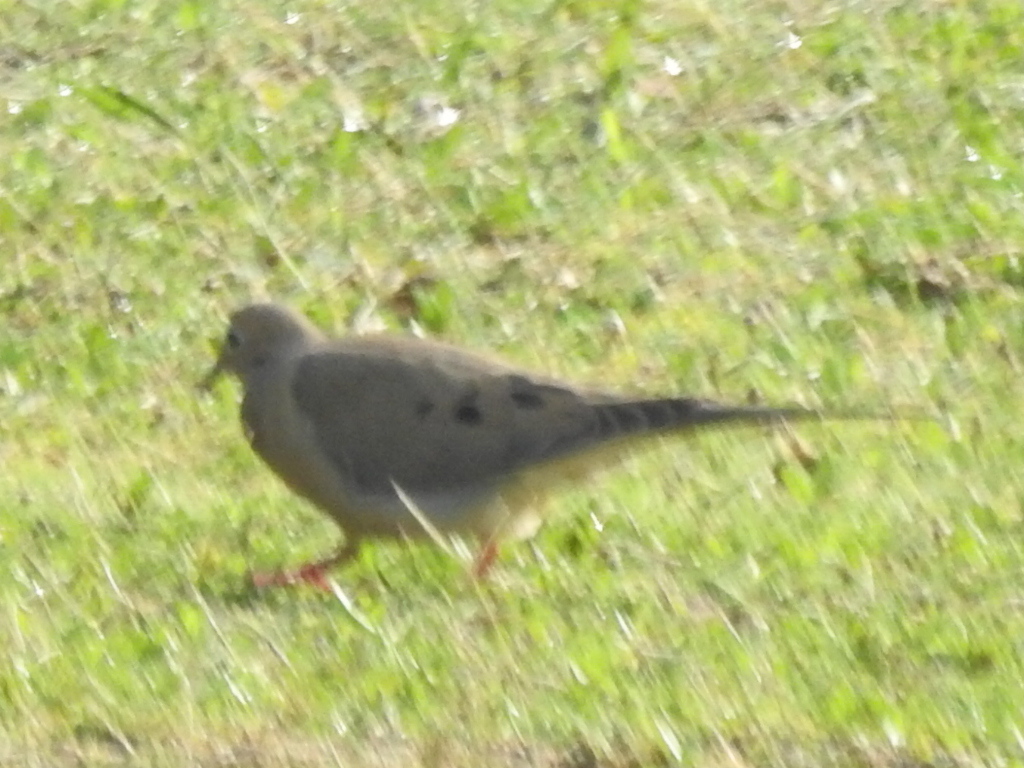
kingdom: Animalia
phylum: Chordata
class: Aves
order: Columbiformes
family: Columbidae
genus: Zenaida
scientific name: Zenaida macroura
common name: Mourning dove
